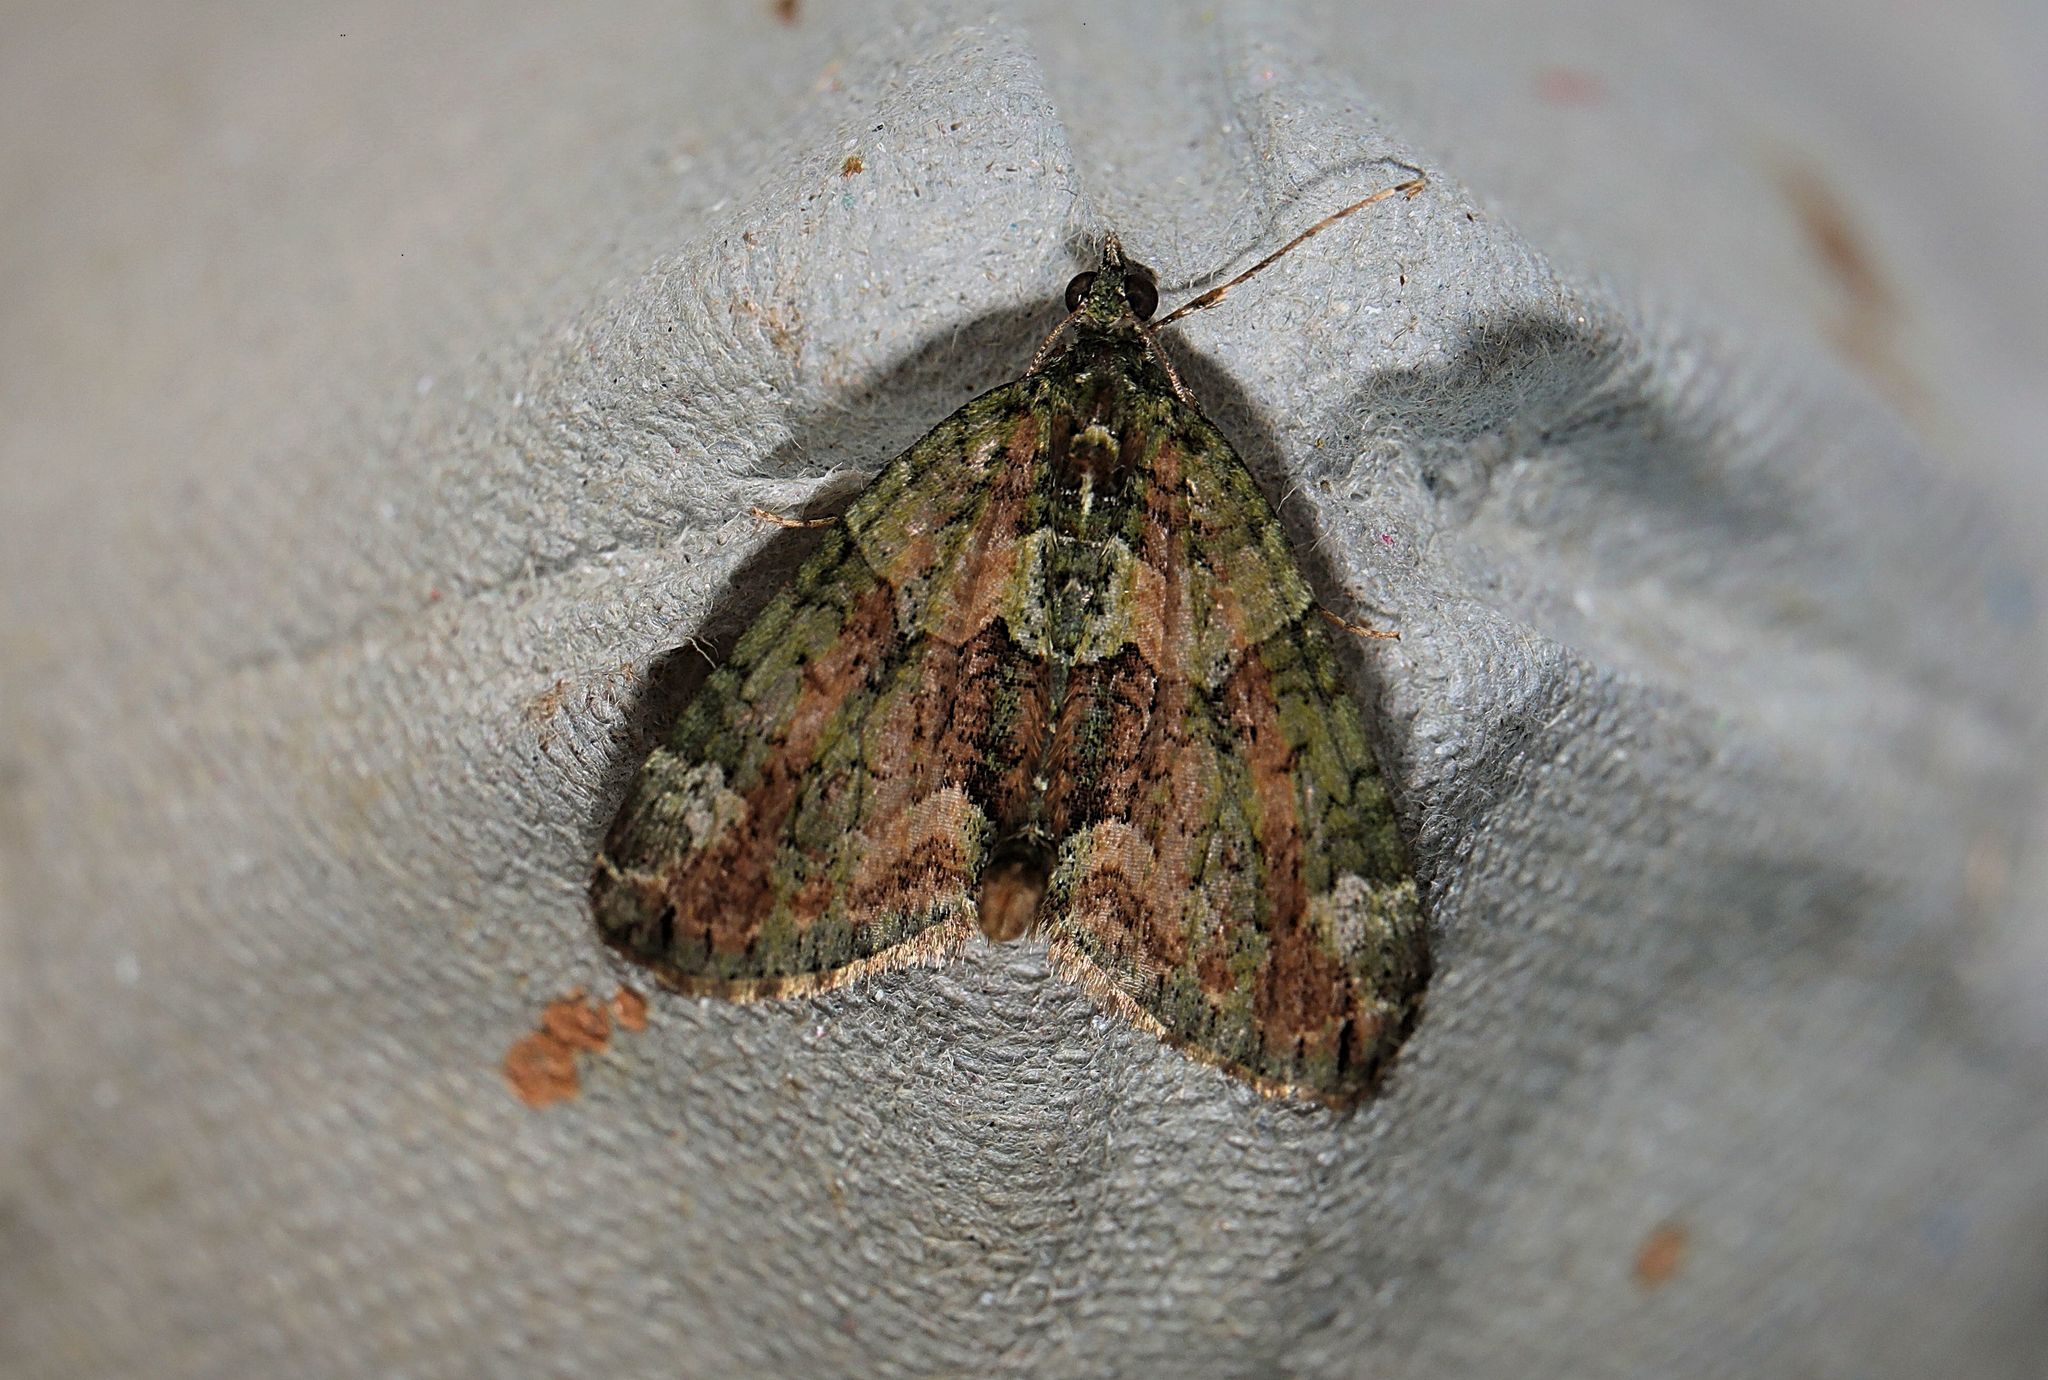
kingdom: Animalia
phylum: Arthropoda
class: Insecta
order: Lepidoptera
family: Geometridae
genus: Chloroclysta
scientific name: Chloroclysta siterata
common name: Red-green carpet
